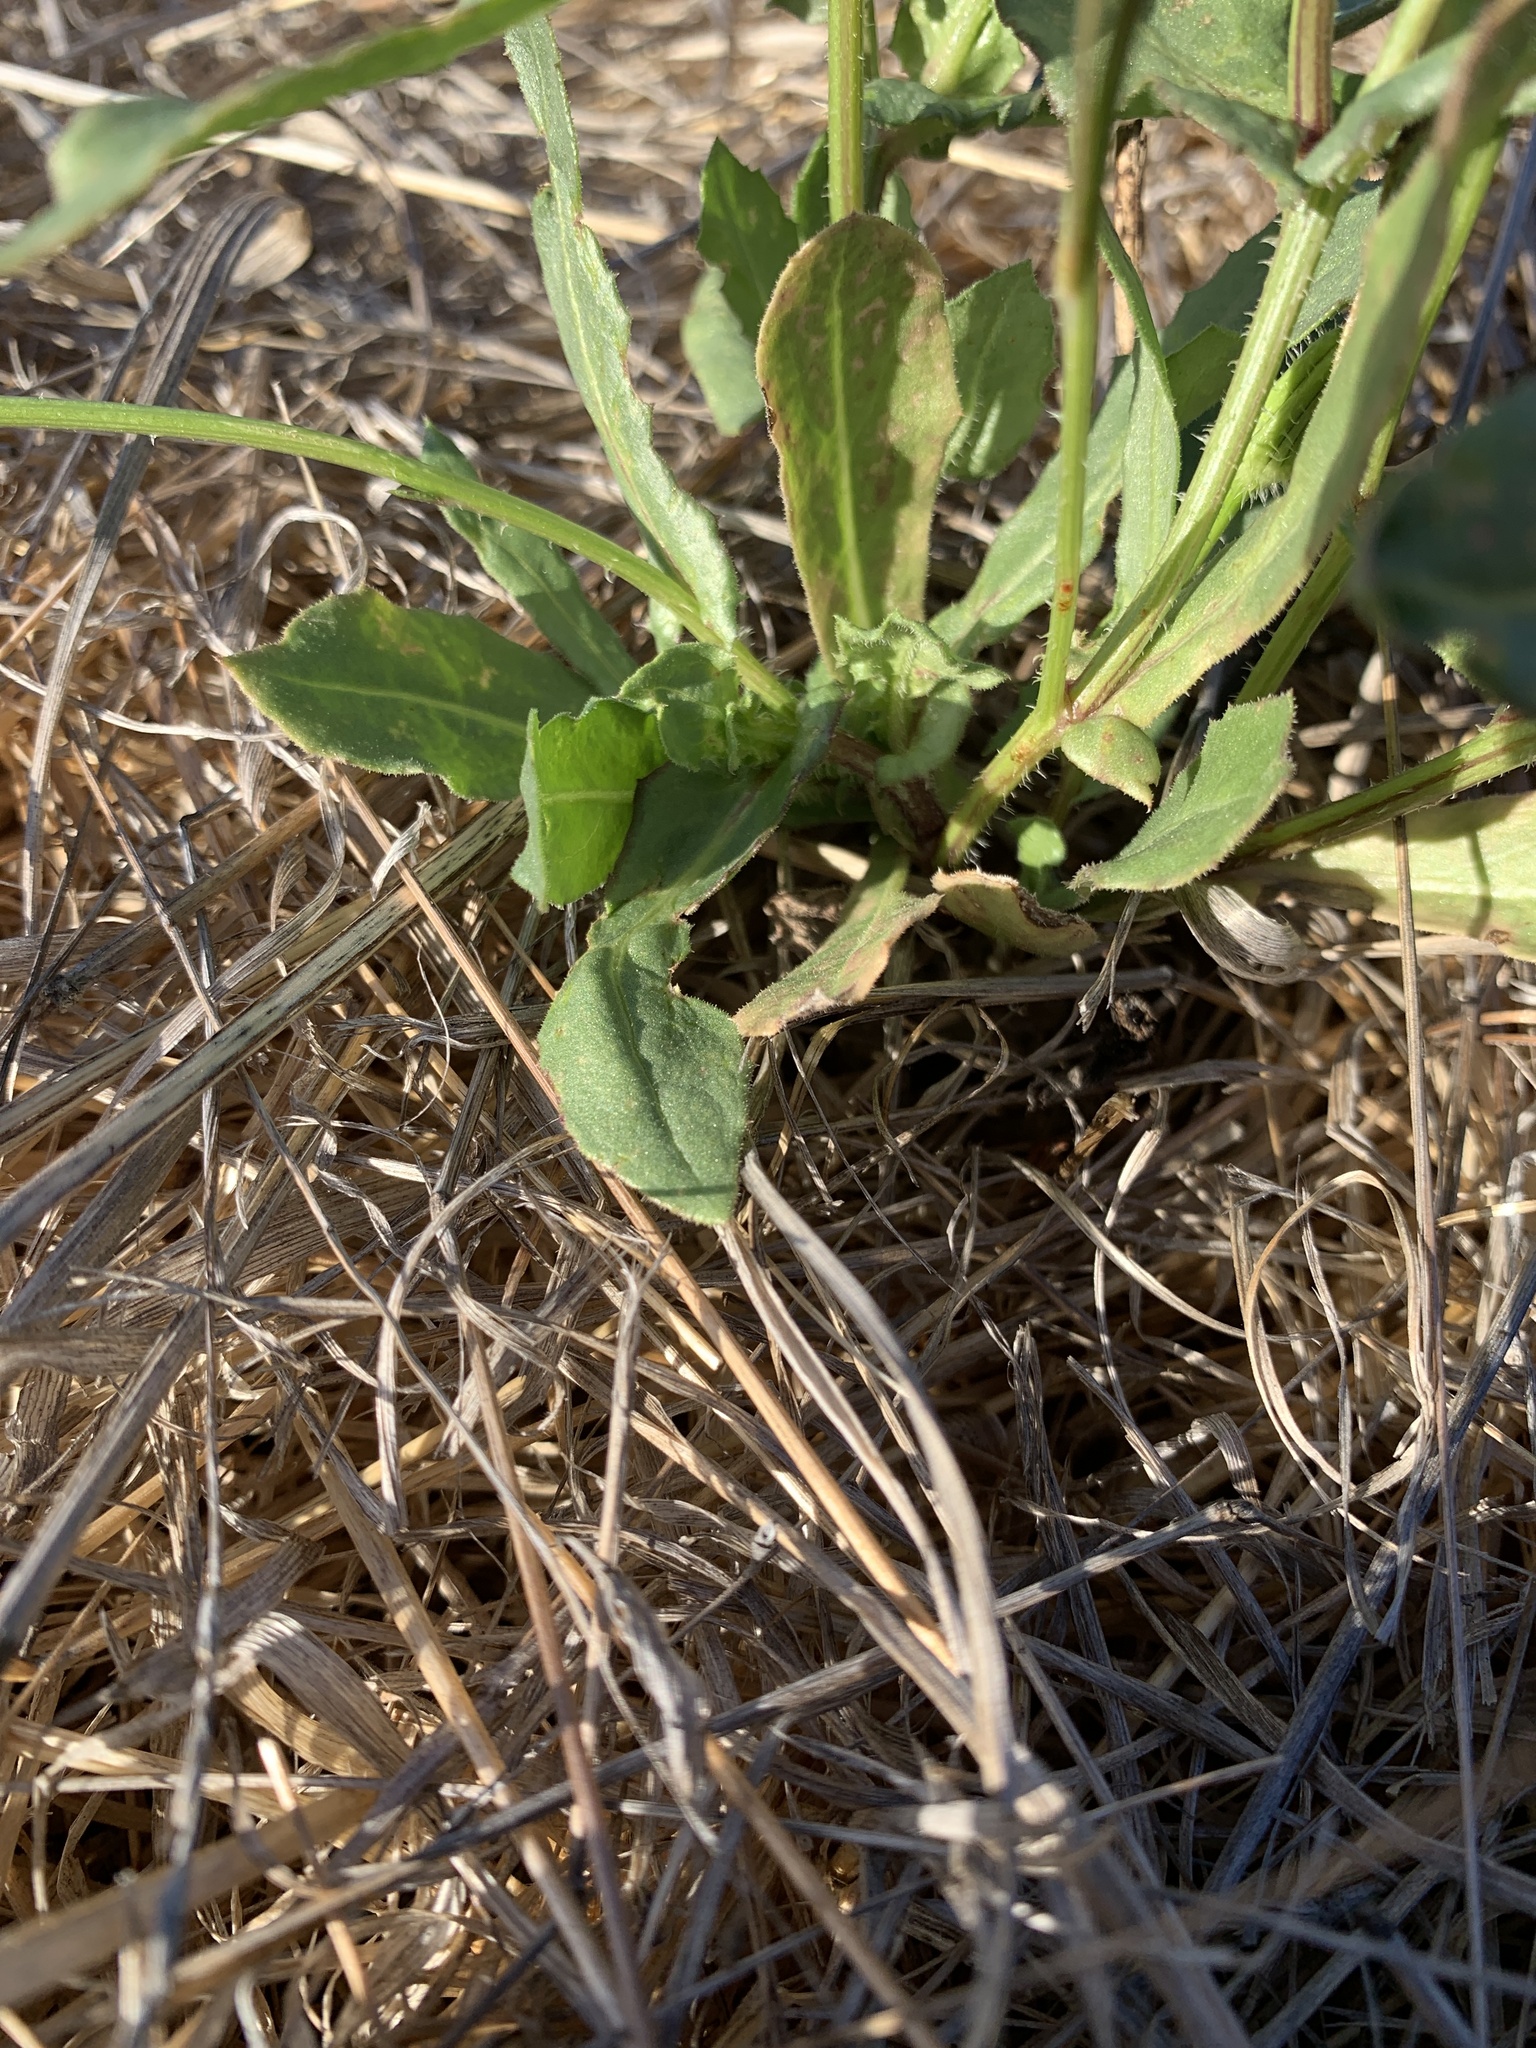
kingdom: Plantae
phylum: Tracheophyta
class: Magnoliopsida
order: Asterales
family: Asteraceae
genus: Urospermum
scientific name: Urospermum picroides
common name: False hawkbit
